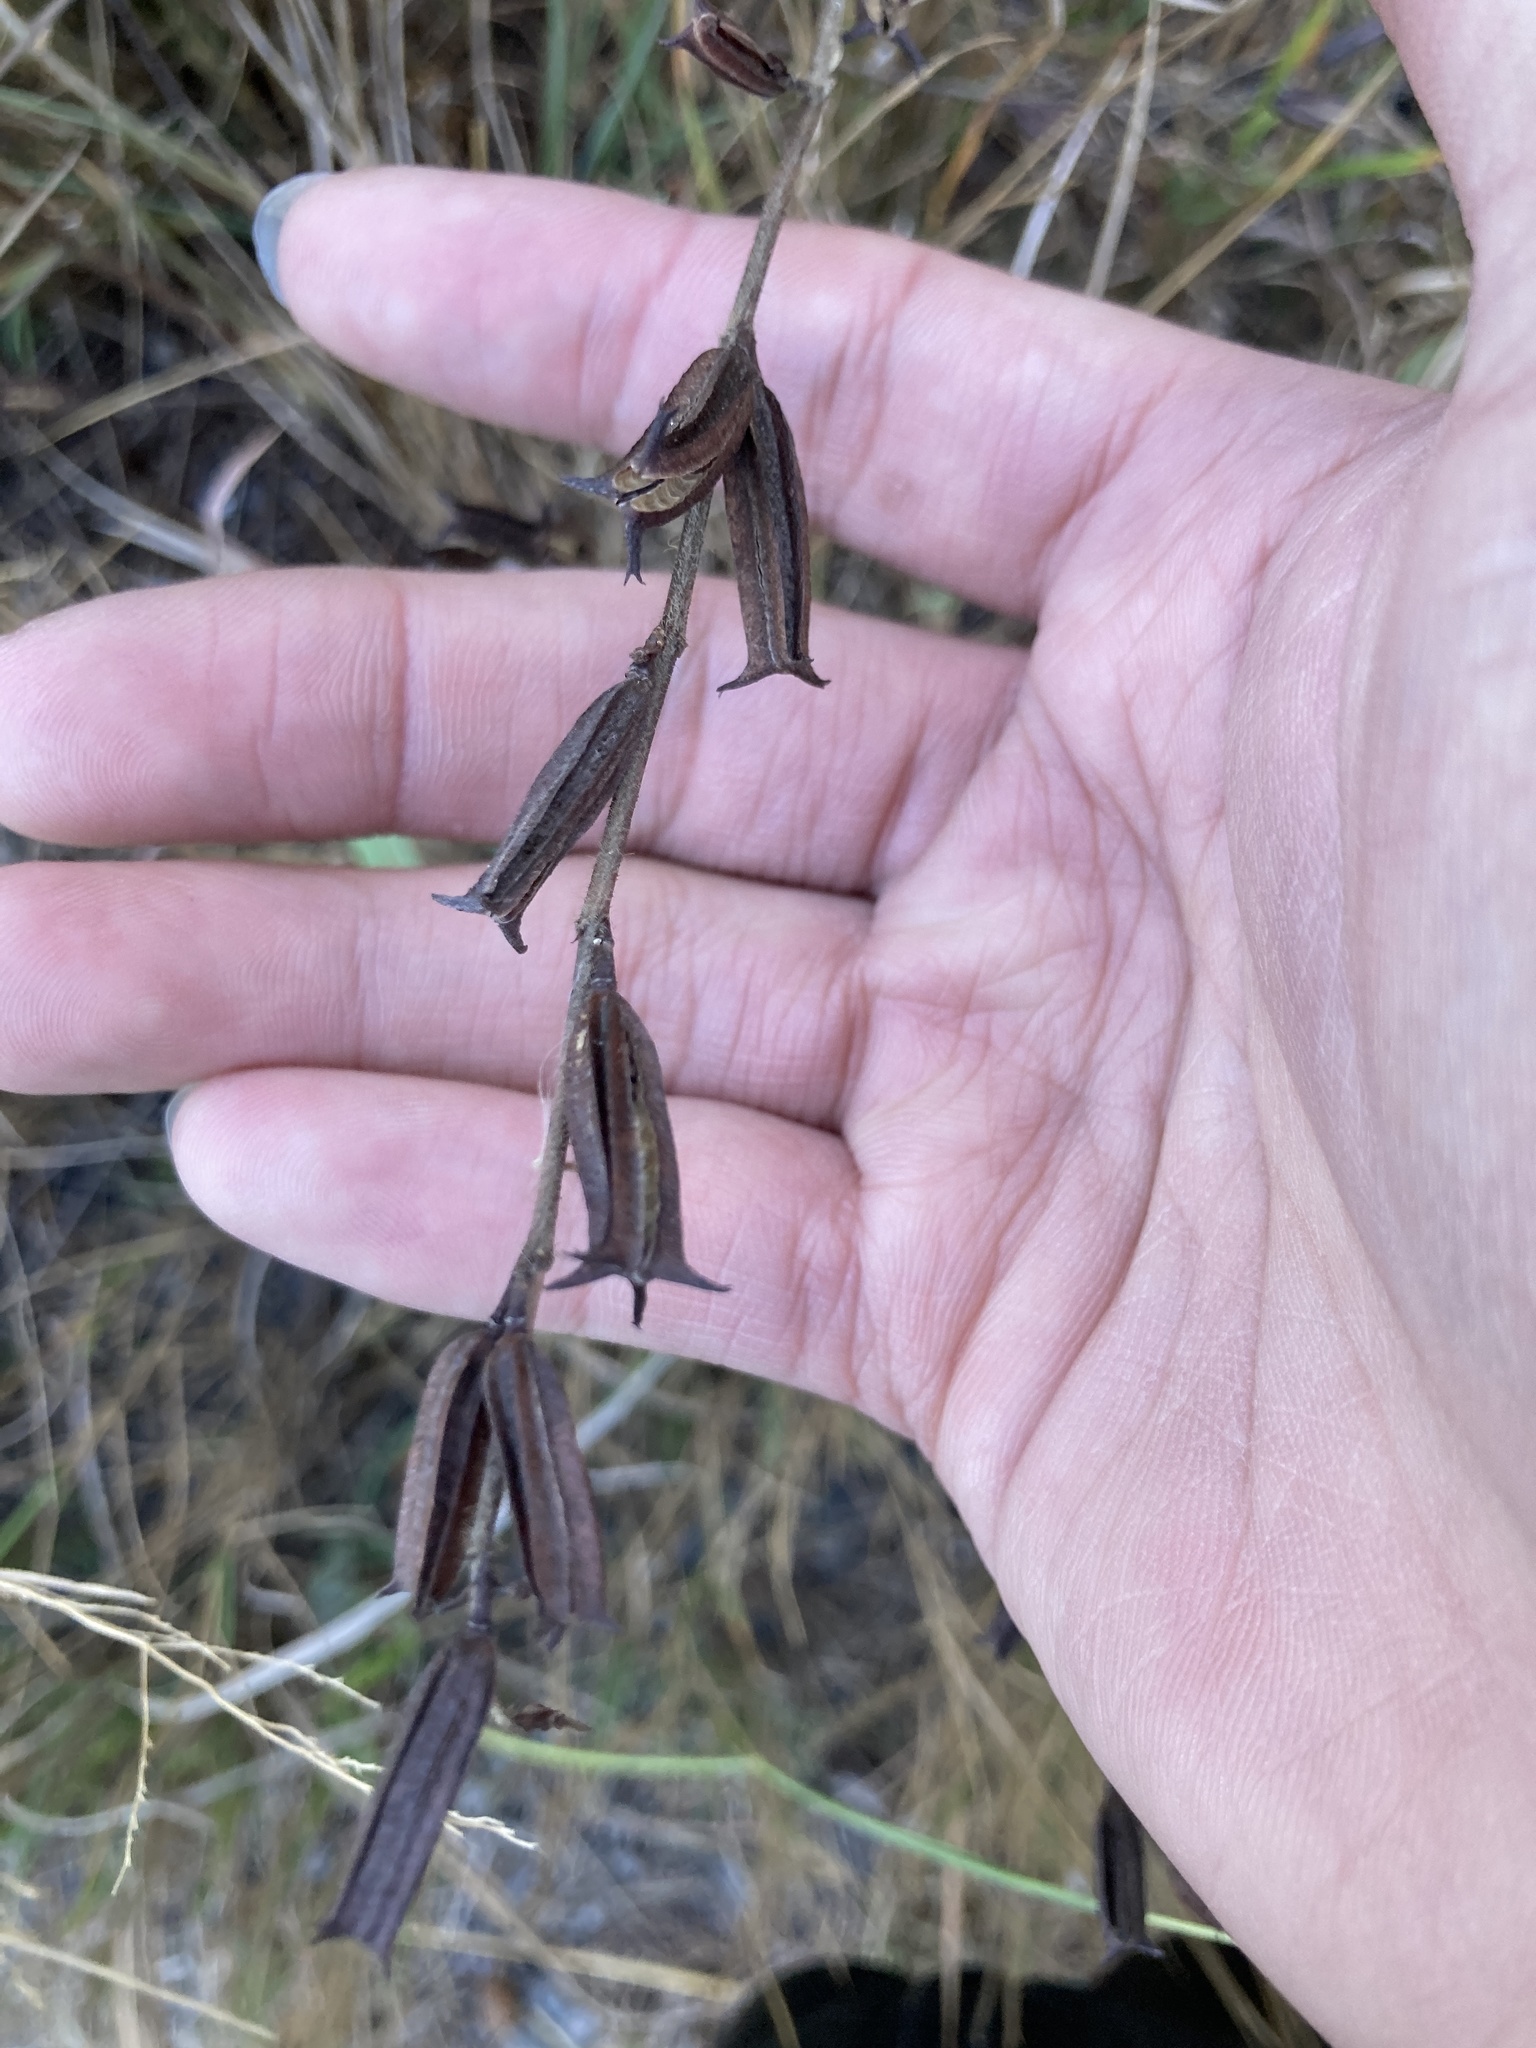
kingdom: Plantae
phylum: Tracheophyta
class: Magnoliopsida
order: Malvales
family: Malvaceae
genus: Corchorus
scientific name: Corchorus aestuans
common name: Jute
